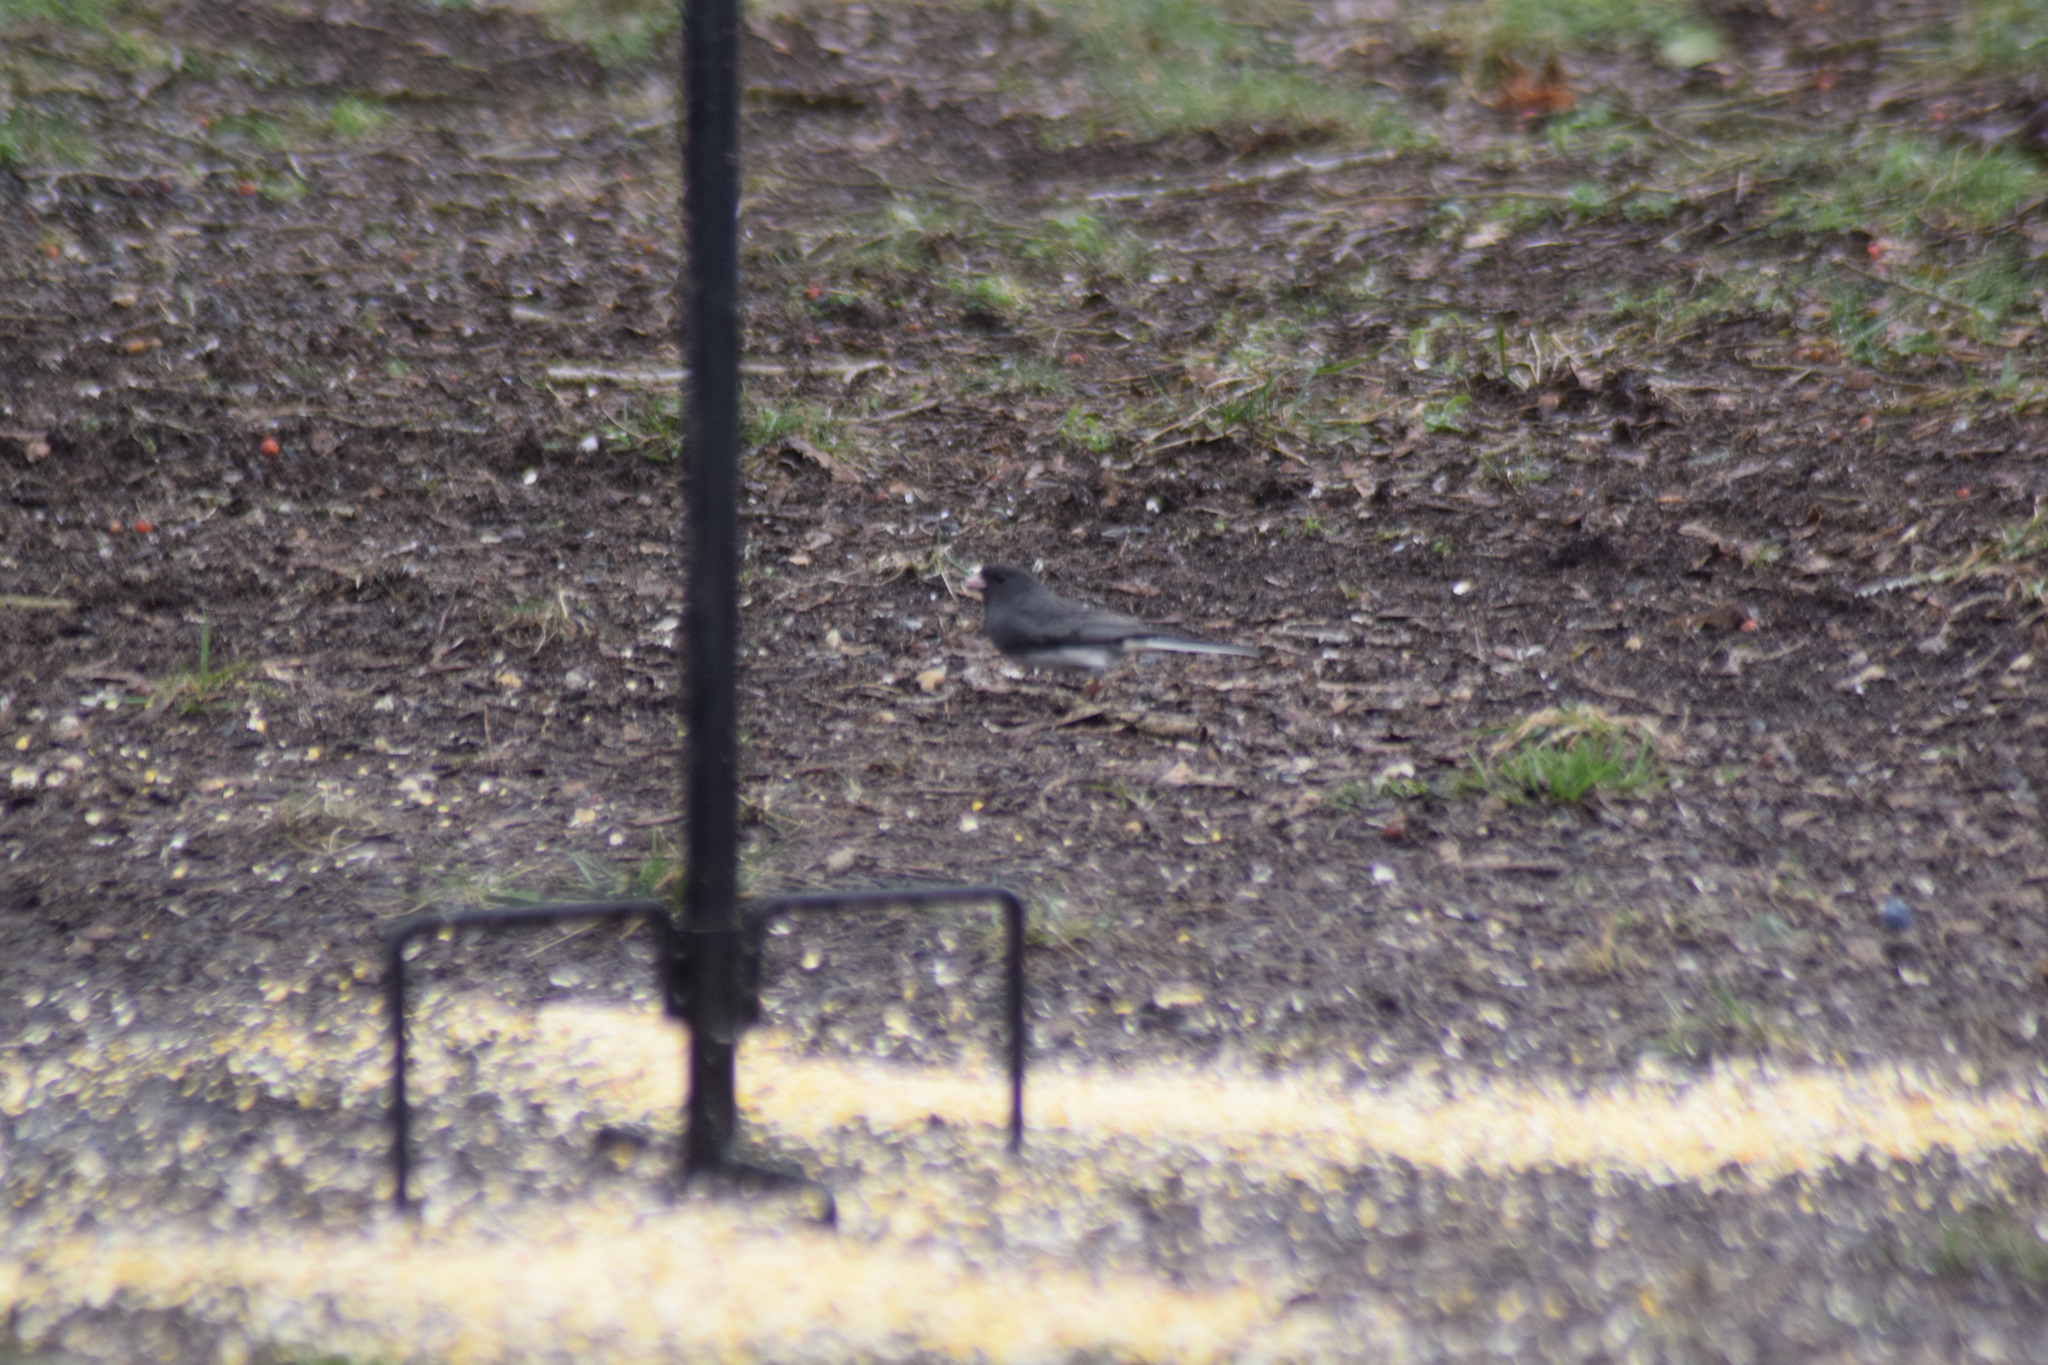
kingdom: Animalia
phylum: Chordata
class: Aves
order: Passeriformes
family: Passerellidae
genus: Junco
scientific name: Junco hyemalis
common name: Dark-eyed junco
